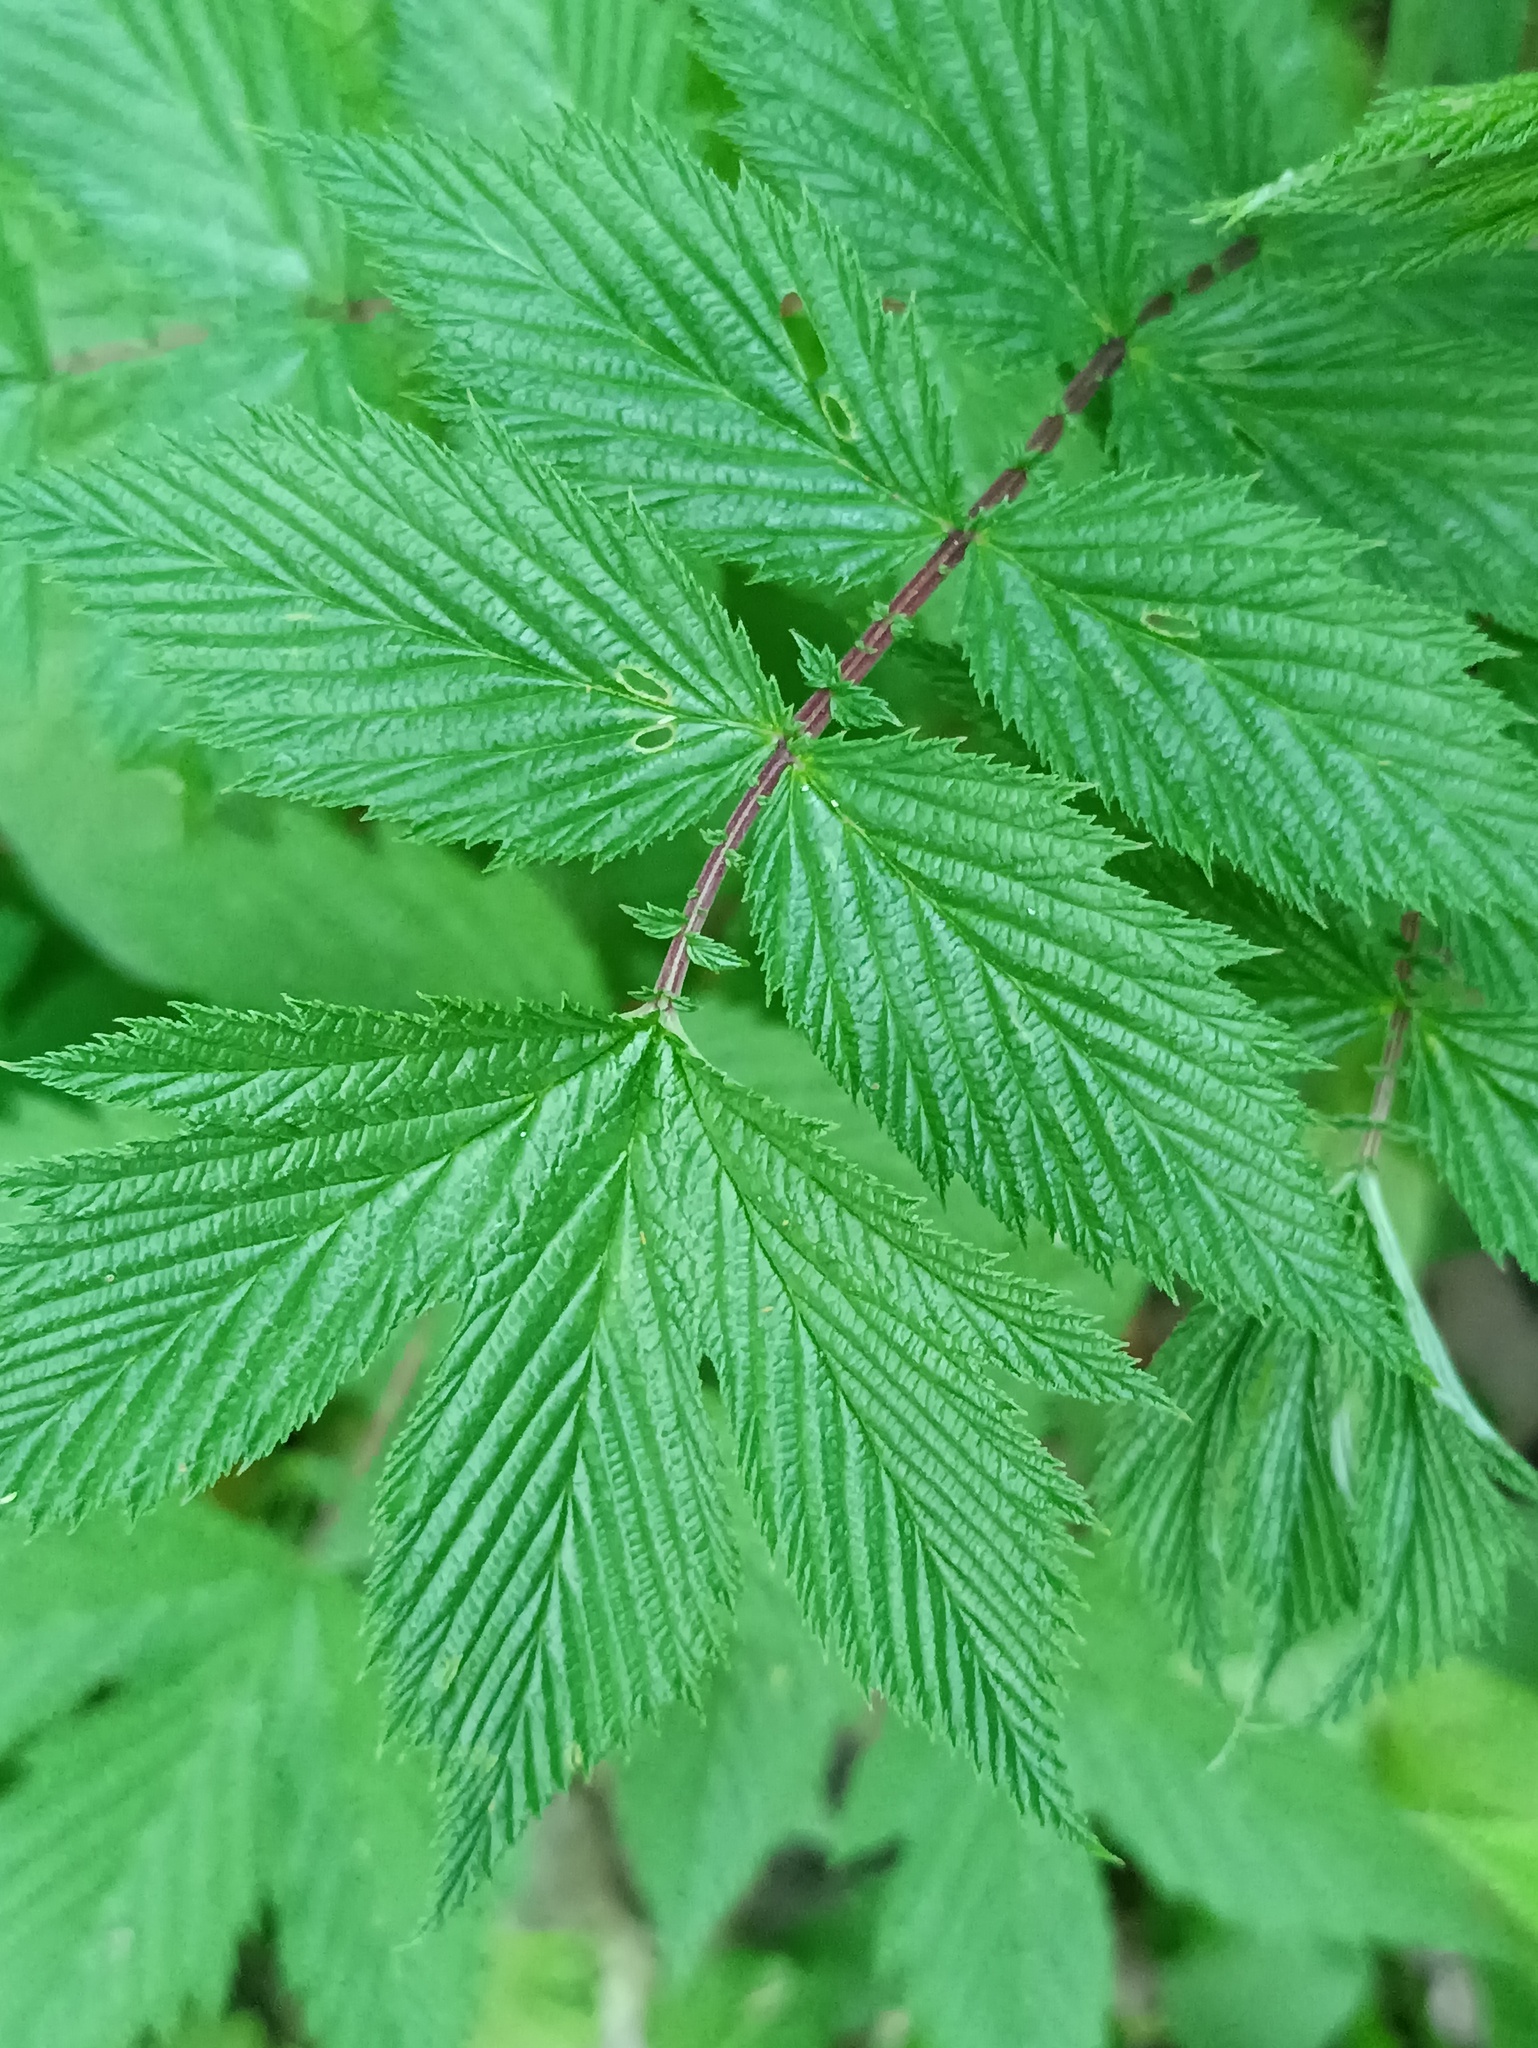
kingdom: Plantae
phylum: Tracheophyta
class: Magnoliopsida
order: Rosales
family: Rosaceae
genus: Filipendula
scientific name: Filipendula ulmaria
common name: Meadowsweet
